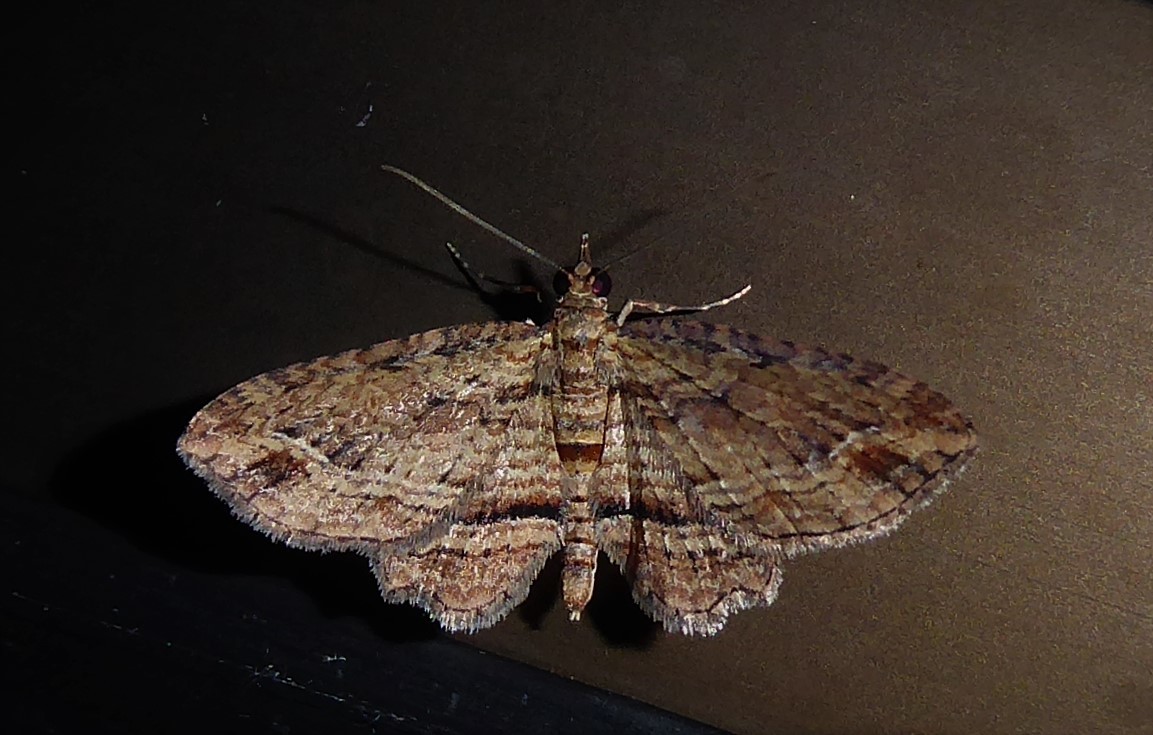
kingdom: Animalia
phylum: Arthropoda
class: Insecta
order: Lepidoptera
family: Geometridae
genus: Chloroclystis
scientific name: Chloroclystis filata
